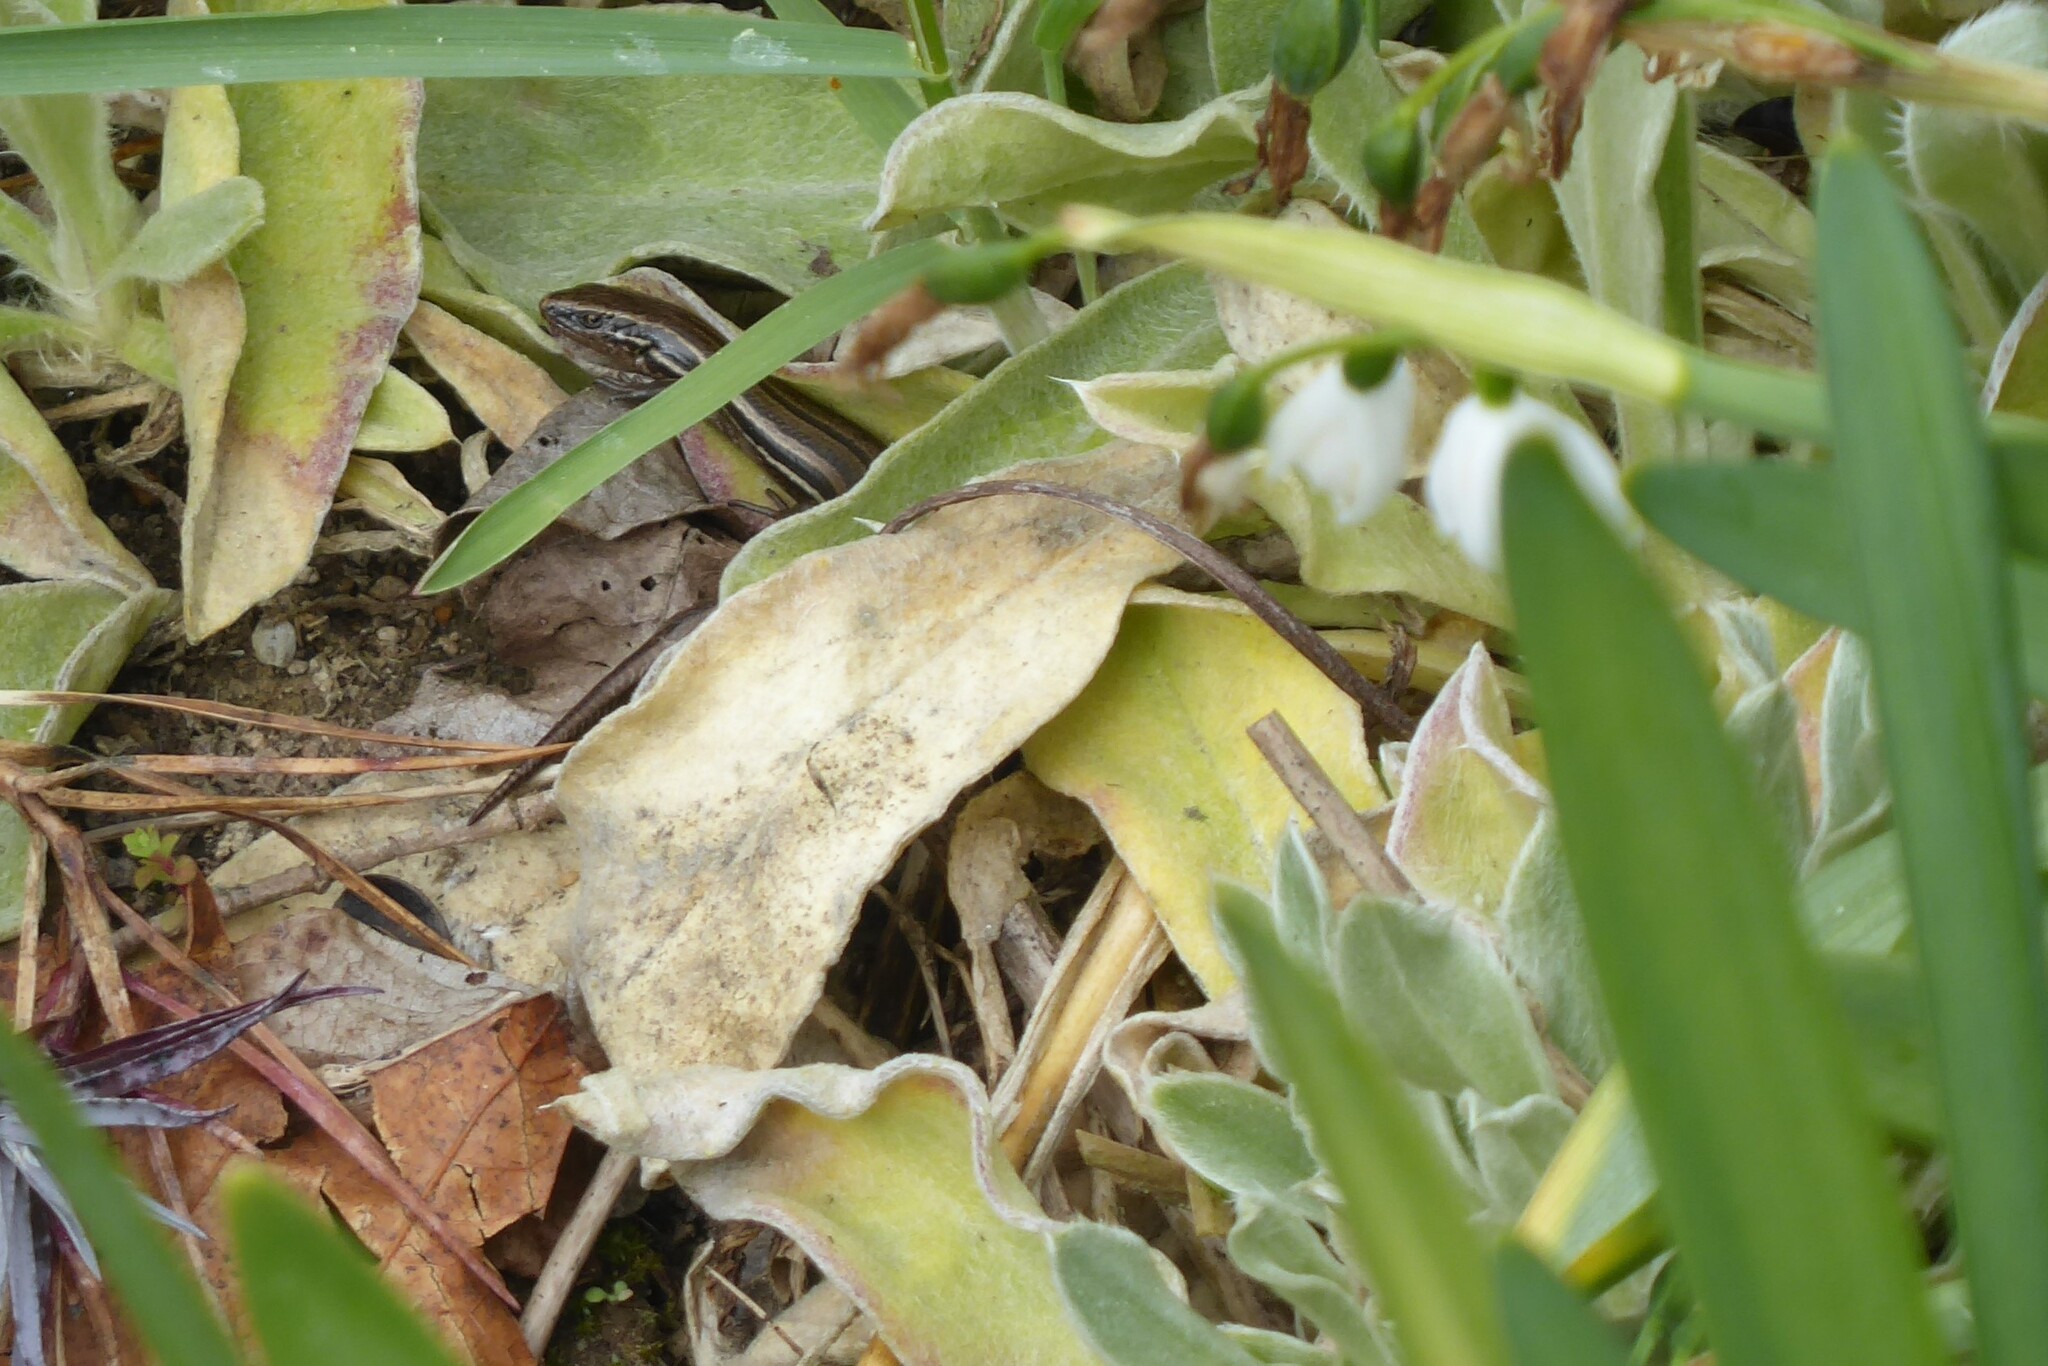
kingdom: Animalia
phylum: Chordata
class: Squamata
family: Scincidae
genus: Oligosoma
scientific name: Oligosoma polychroma
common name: Common new zealand skink
